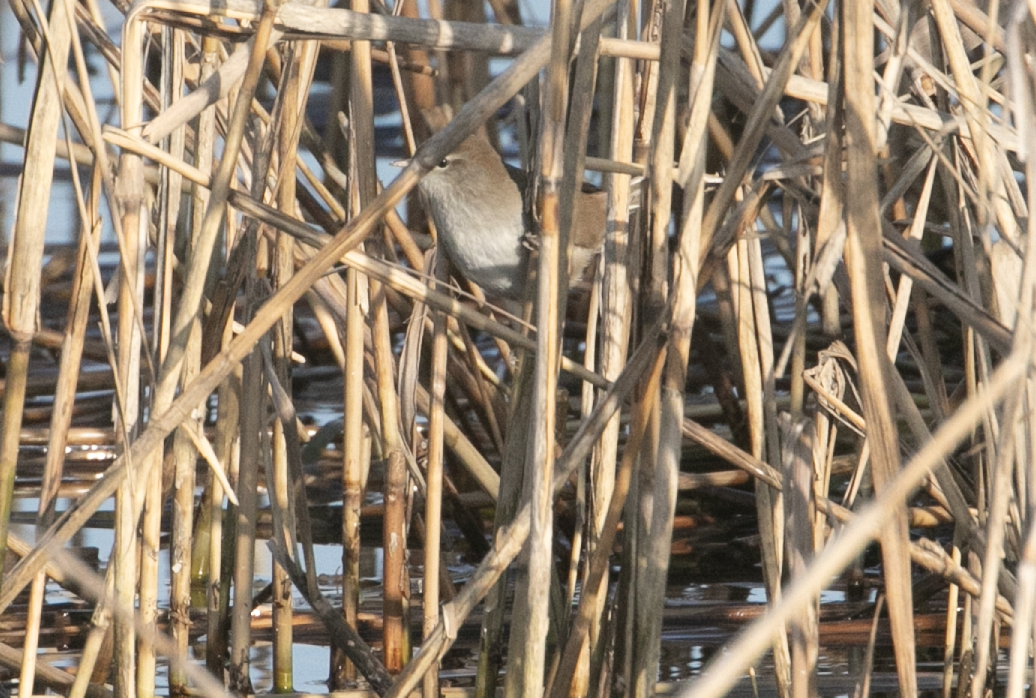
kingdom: Animalia
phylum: Chordata
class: Aves
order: Passeriformes
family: Cettiidae
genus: Cettia
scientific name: Cettia cetti
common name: Cetti's warbler
